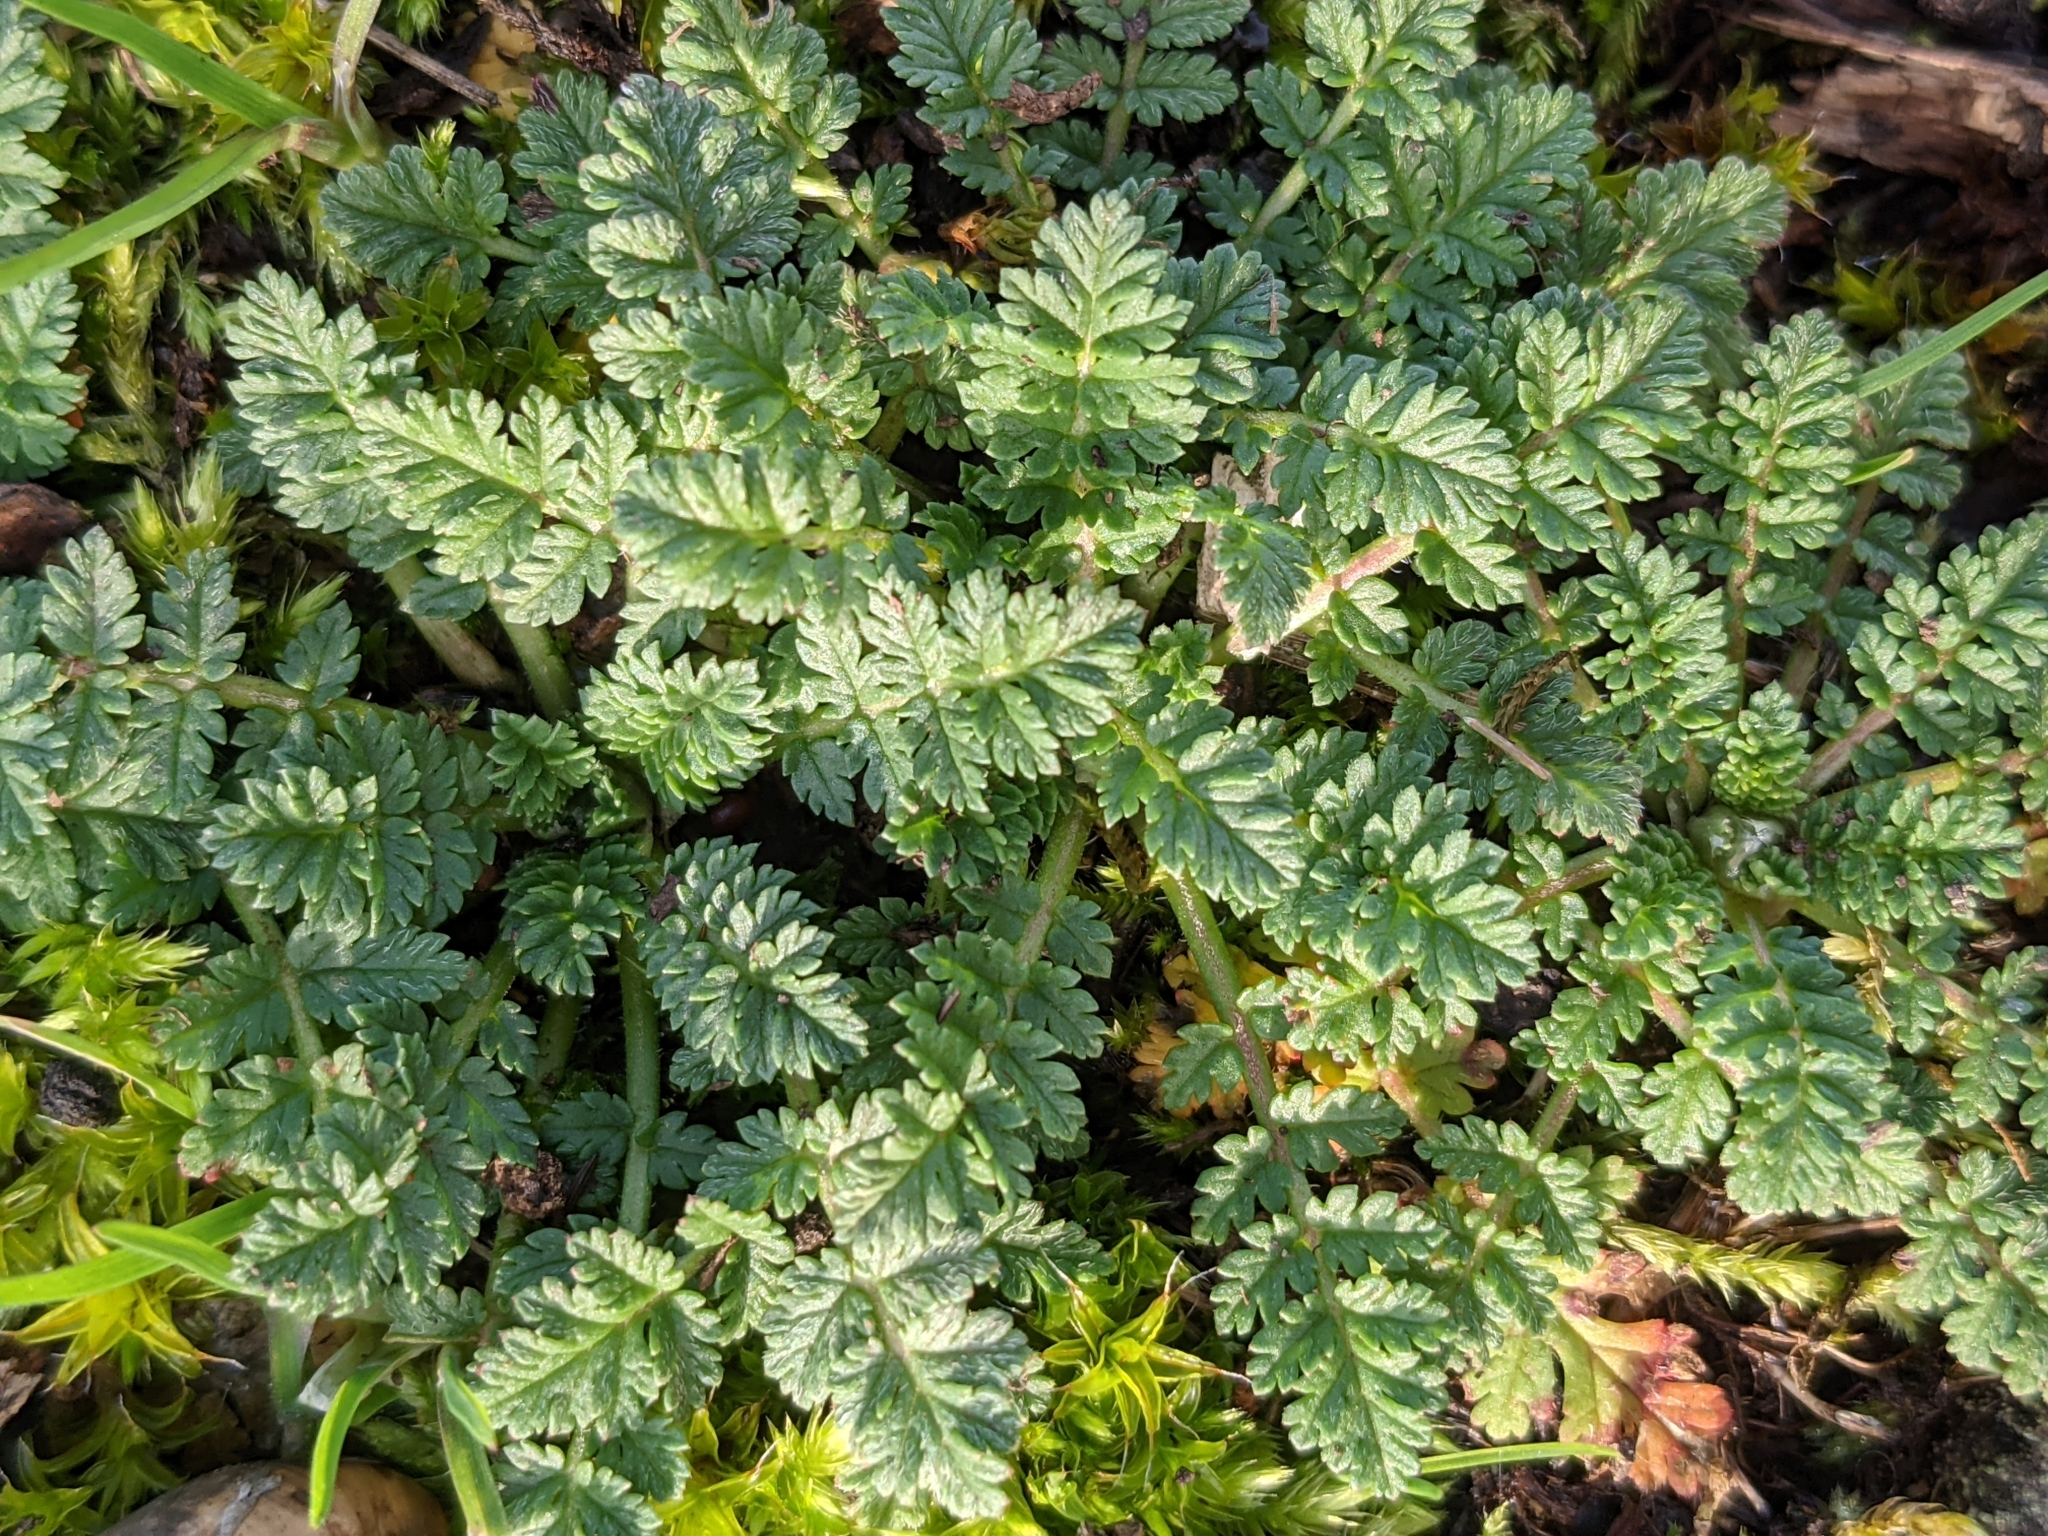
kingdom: Plantae
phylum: Tracheophyta
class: Magnoliopsida
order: Geraniales
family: Geraniaceae
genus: Erodium
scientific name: Erodium cicutarium
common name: Common stork's-bill
